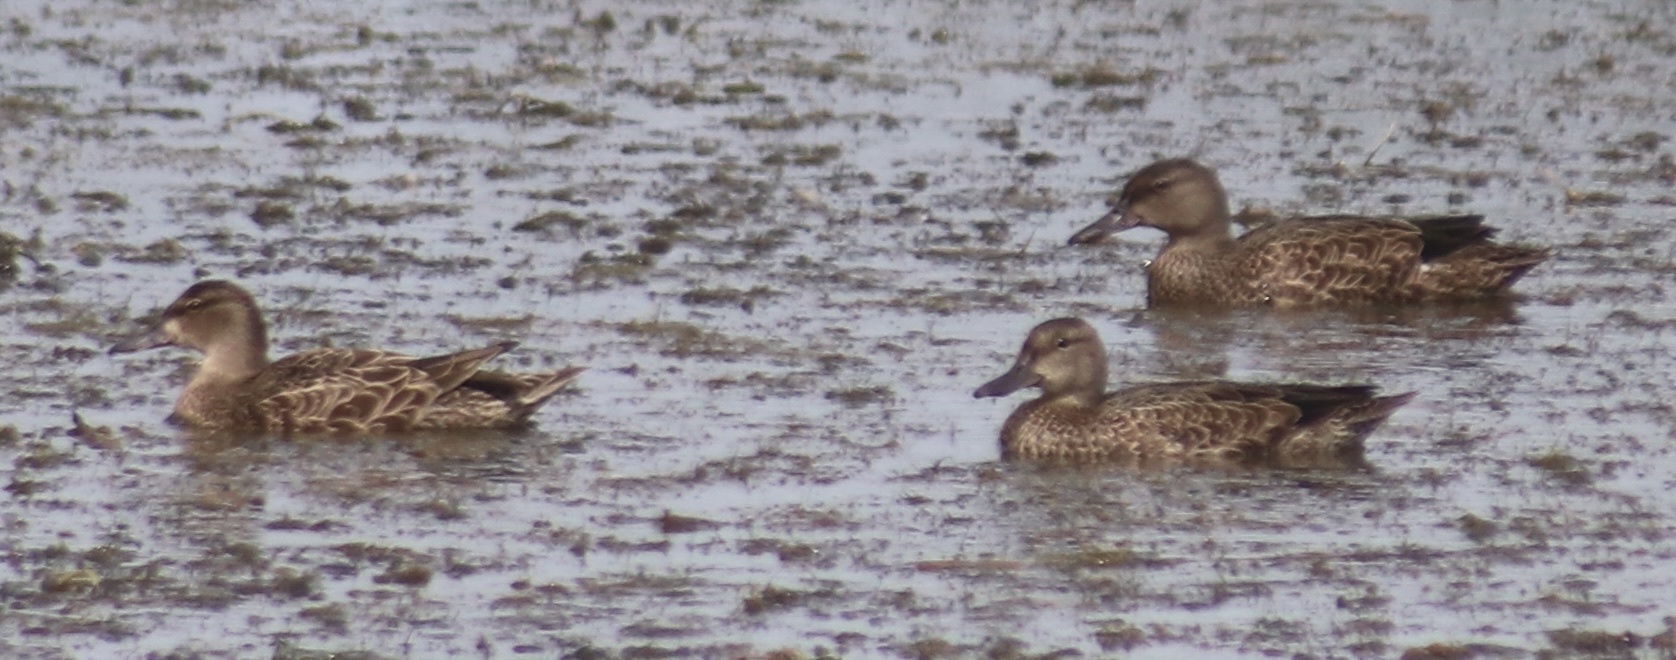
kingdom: Animalia
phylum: Chordata
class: Aves
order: Anseriformes
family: Anatidae
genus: Spatula
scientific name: Spatula discors
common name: Blue-winged teal
